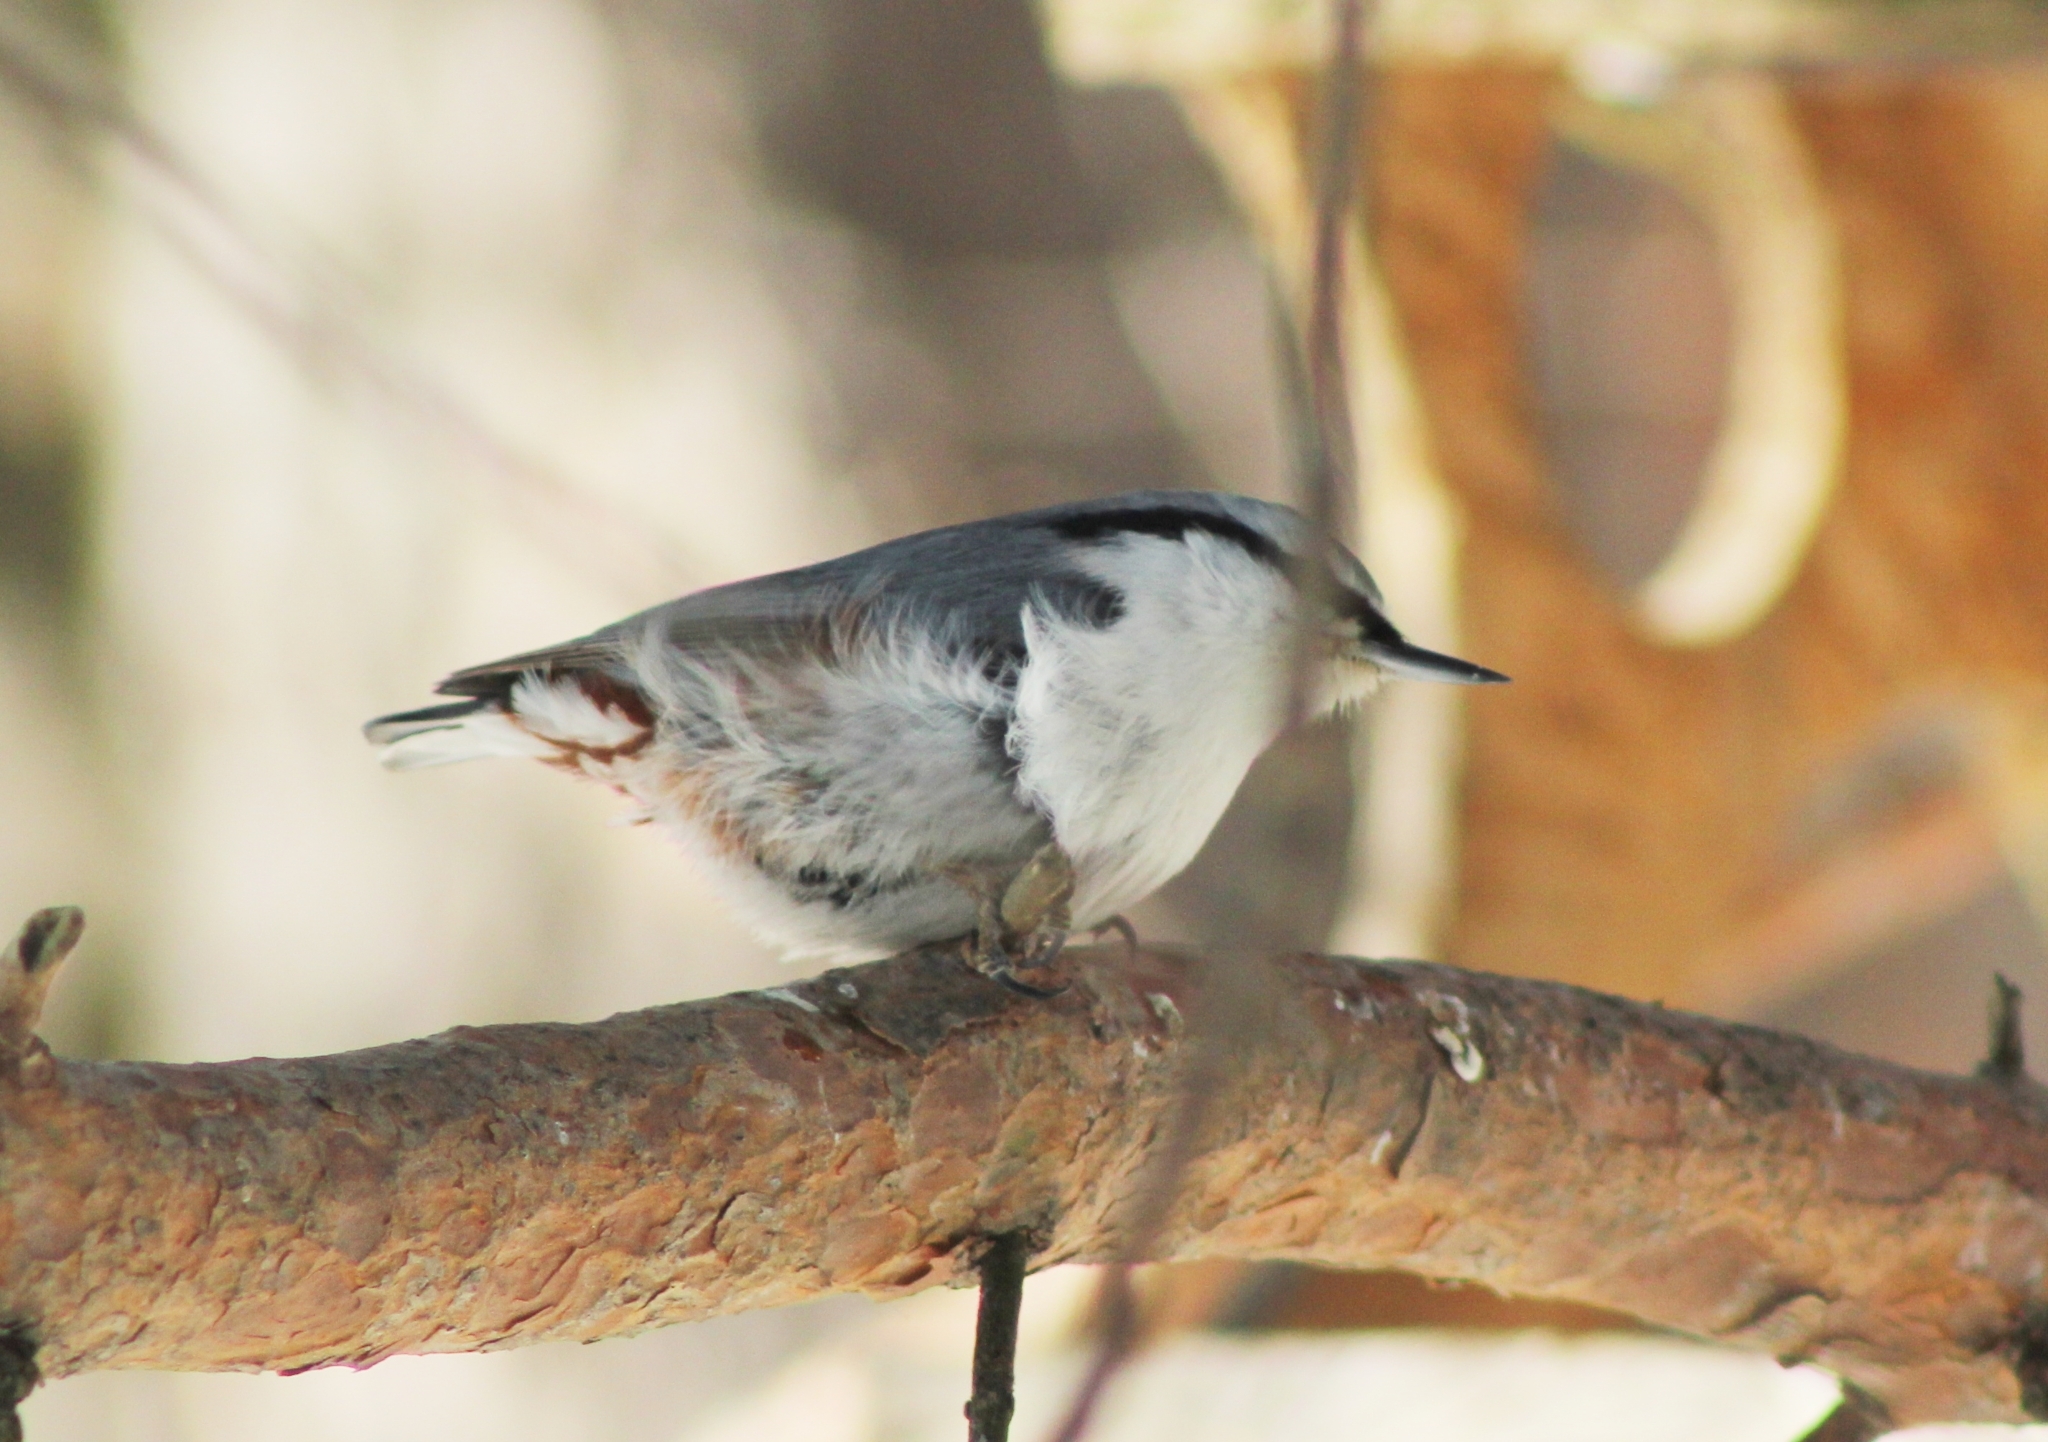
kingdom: Animalia
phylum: Chordata
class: Aves
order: Passeriformes
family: Sittidae
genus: Sitta
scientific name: Sitta europaea
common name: Eurasian nuthatch
